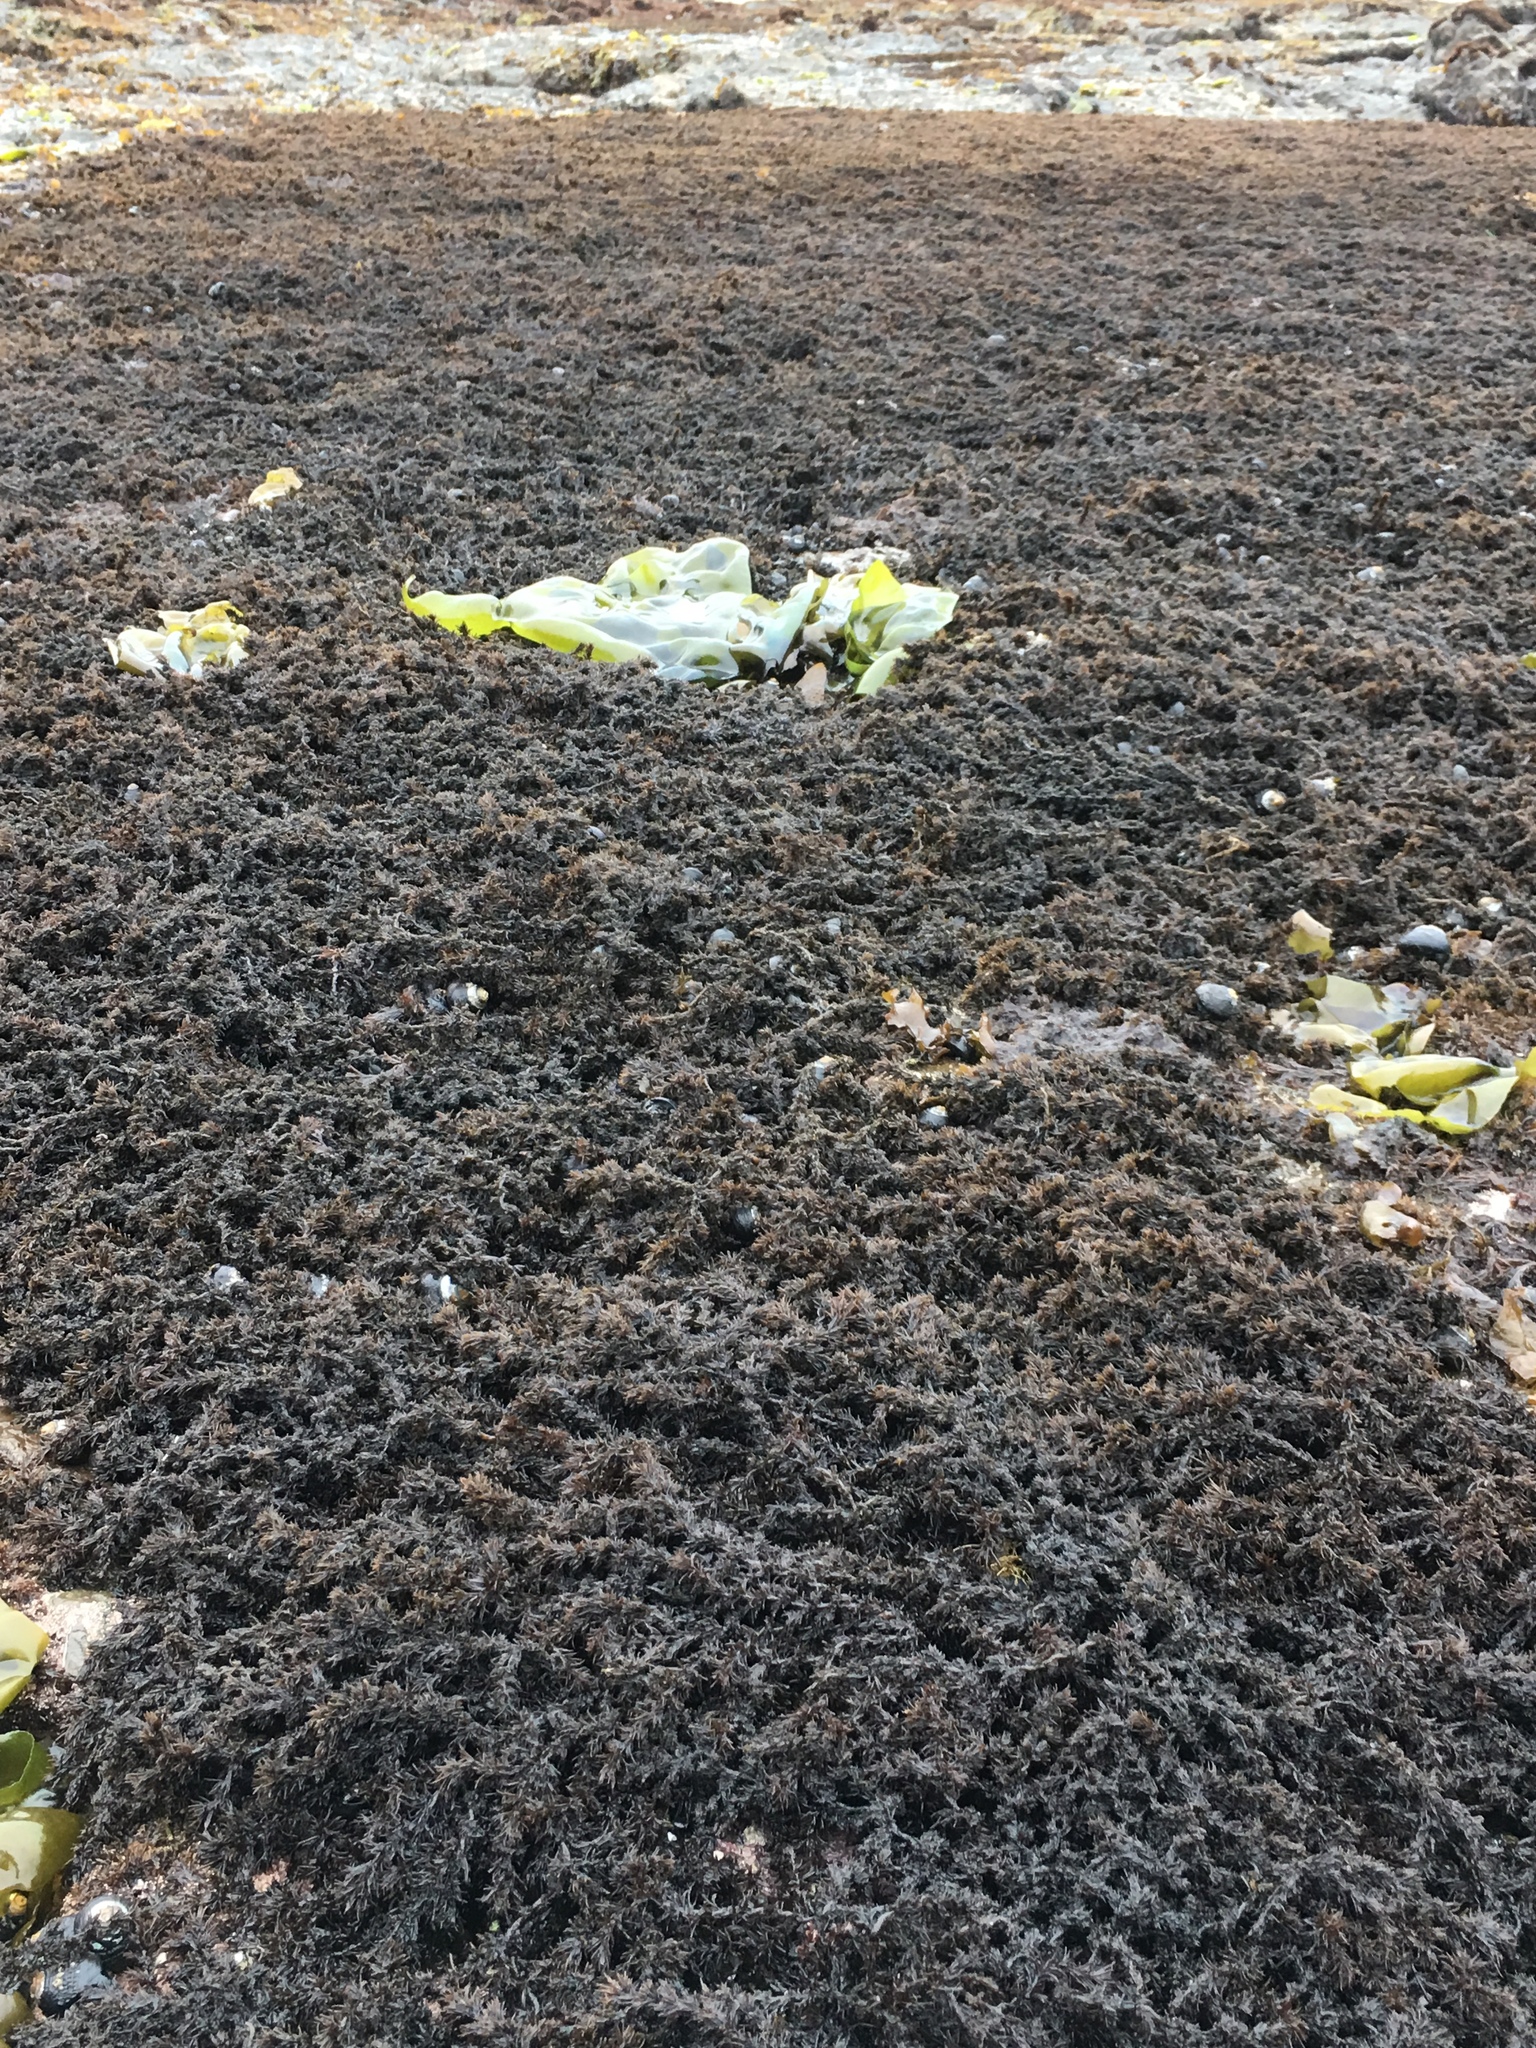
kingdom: Plantae
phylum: Rhodophyta
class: Florideophyceae
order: Ceramiales
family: Rhodomelaceae
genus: Neorhodomela
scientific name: Neorhodomela larix
